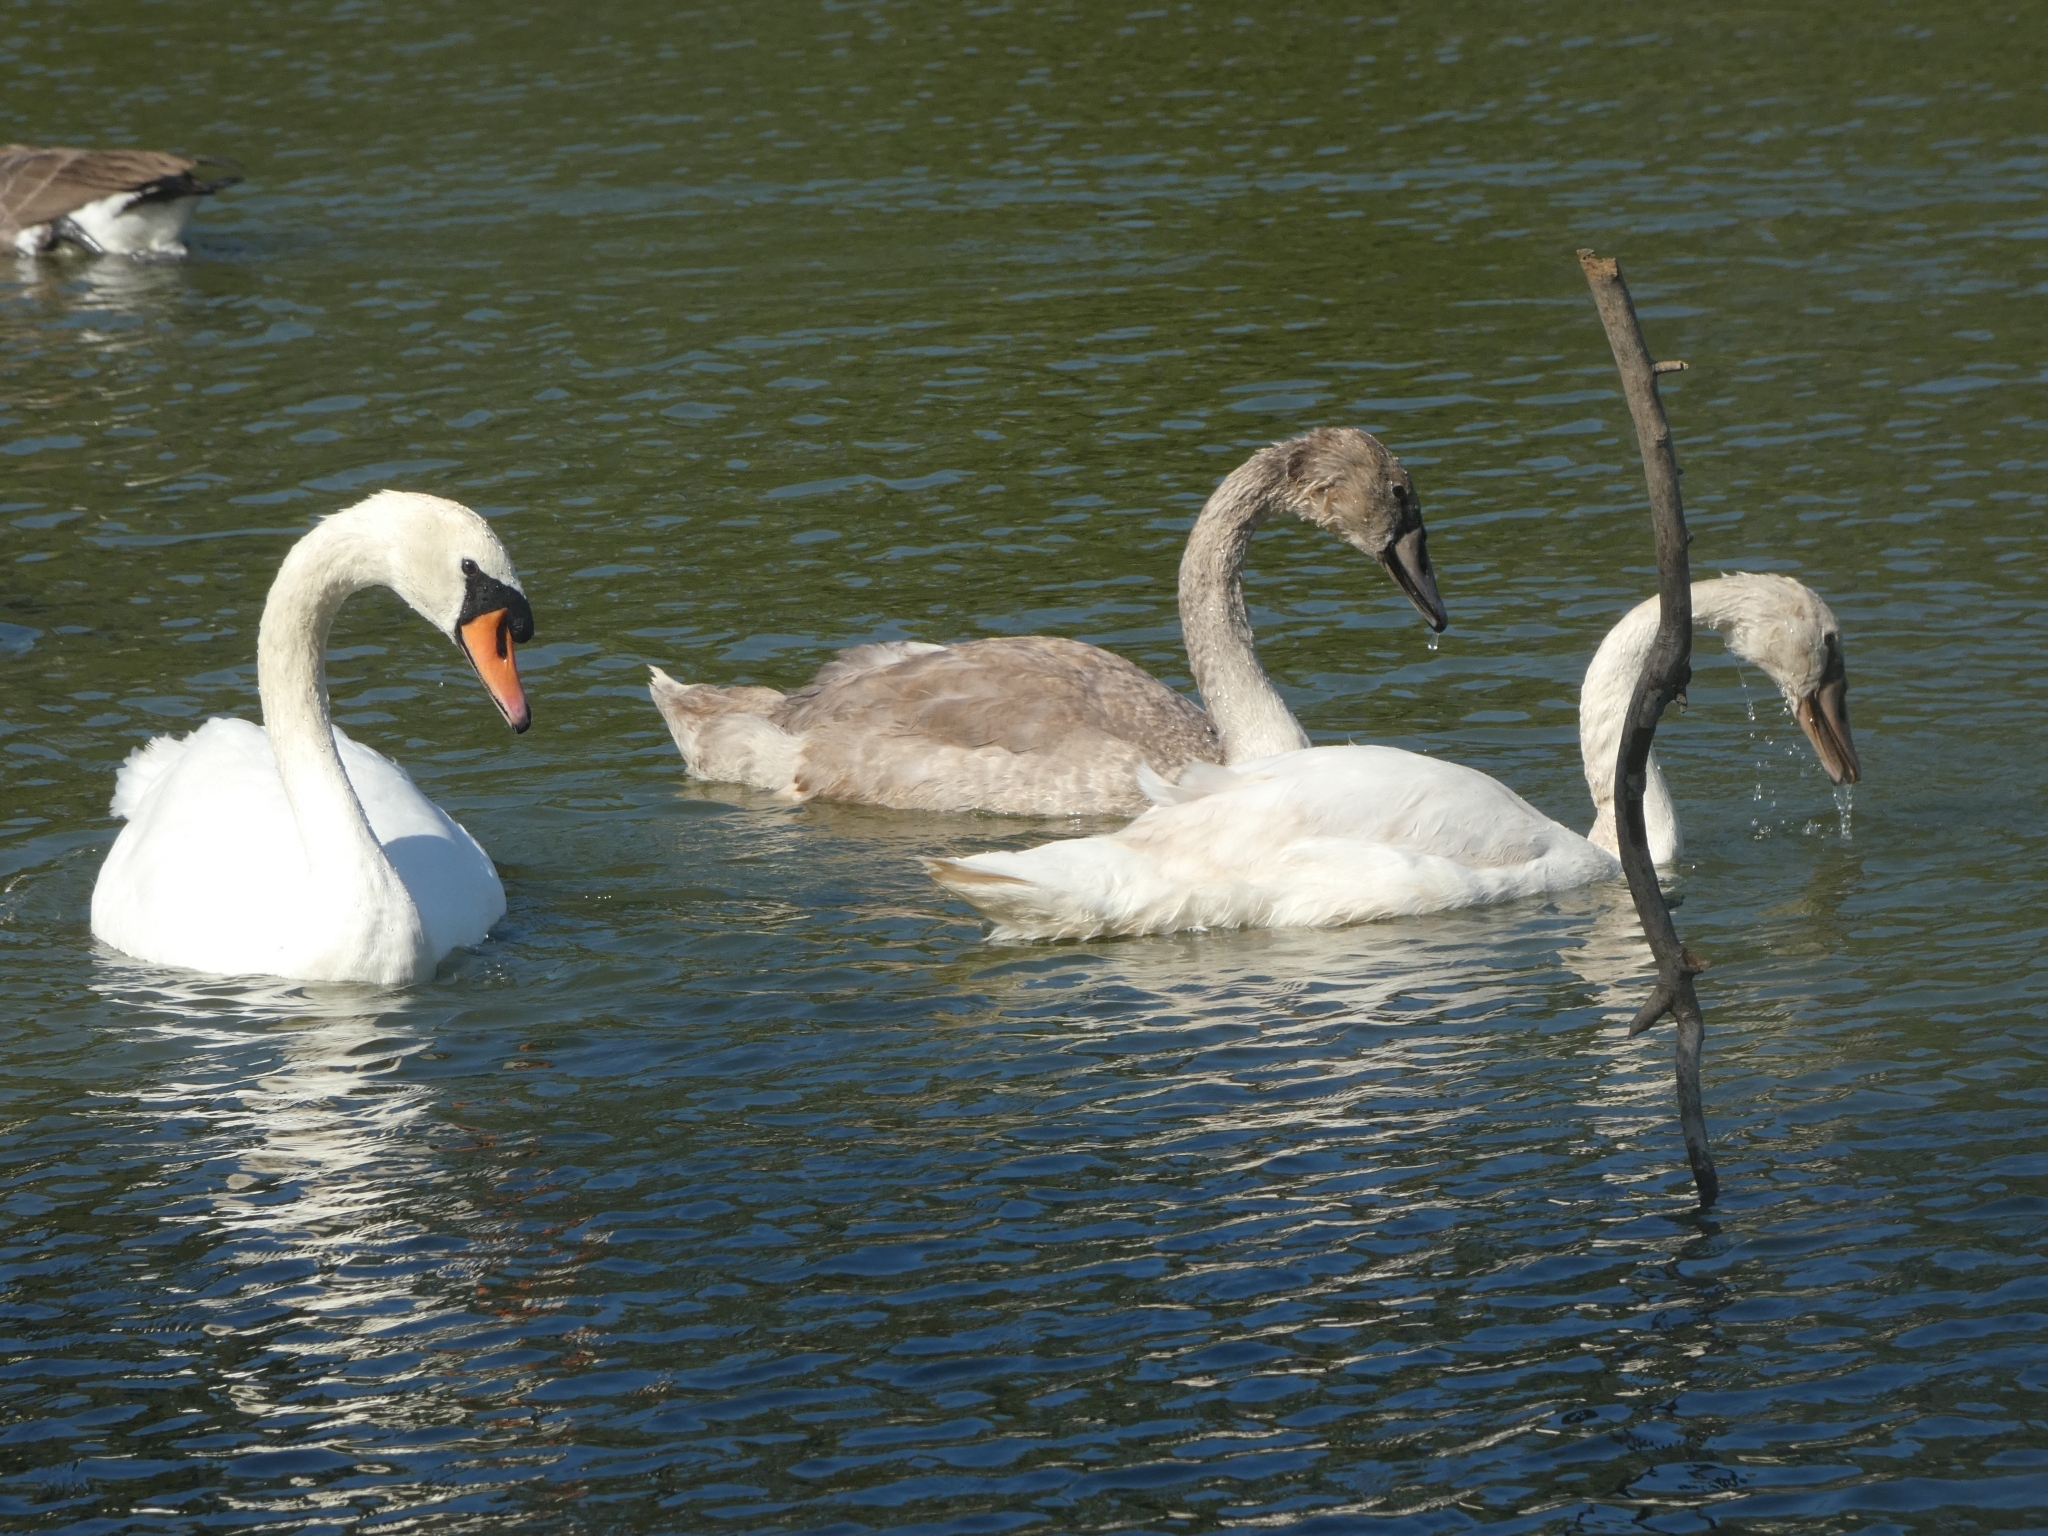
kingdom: Animalia
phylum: Chordata
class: Aves
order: Anseriformes
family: Anatidae
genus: Cygnus
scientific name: Cygnus olor
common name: Mute swan
